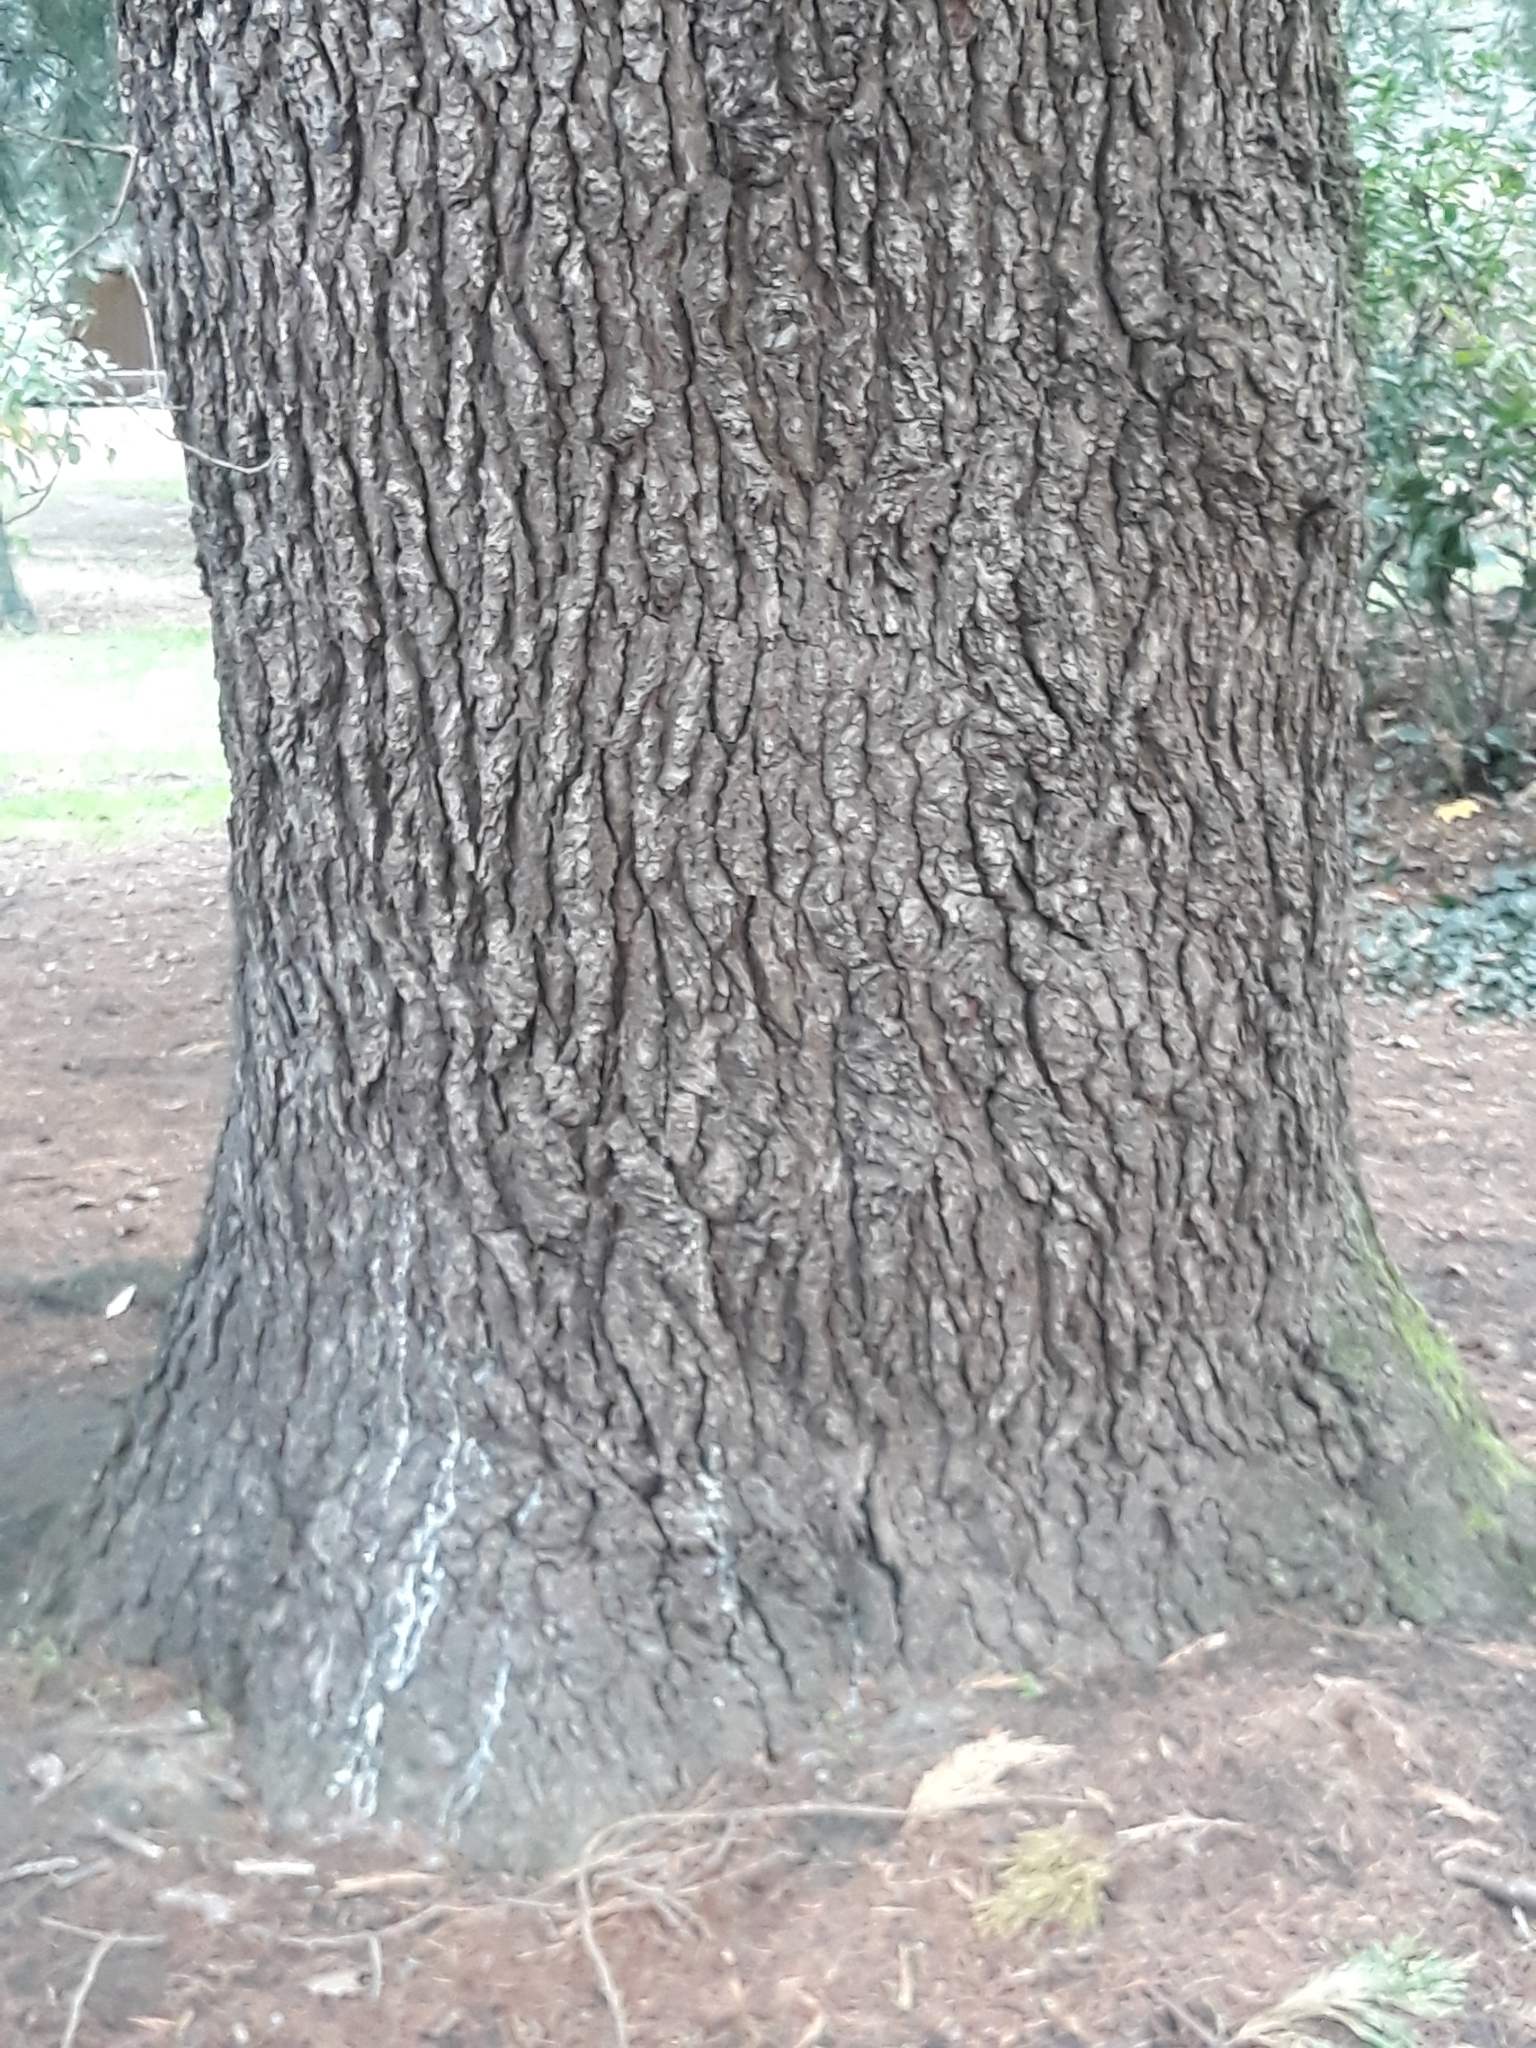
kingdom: Plantae
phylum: Tracheophyta
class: Pinopsida
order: Pinales
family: Pinaceae
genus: Cedrus
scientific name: Cedrus deodara
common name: Deodar
